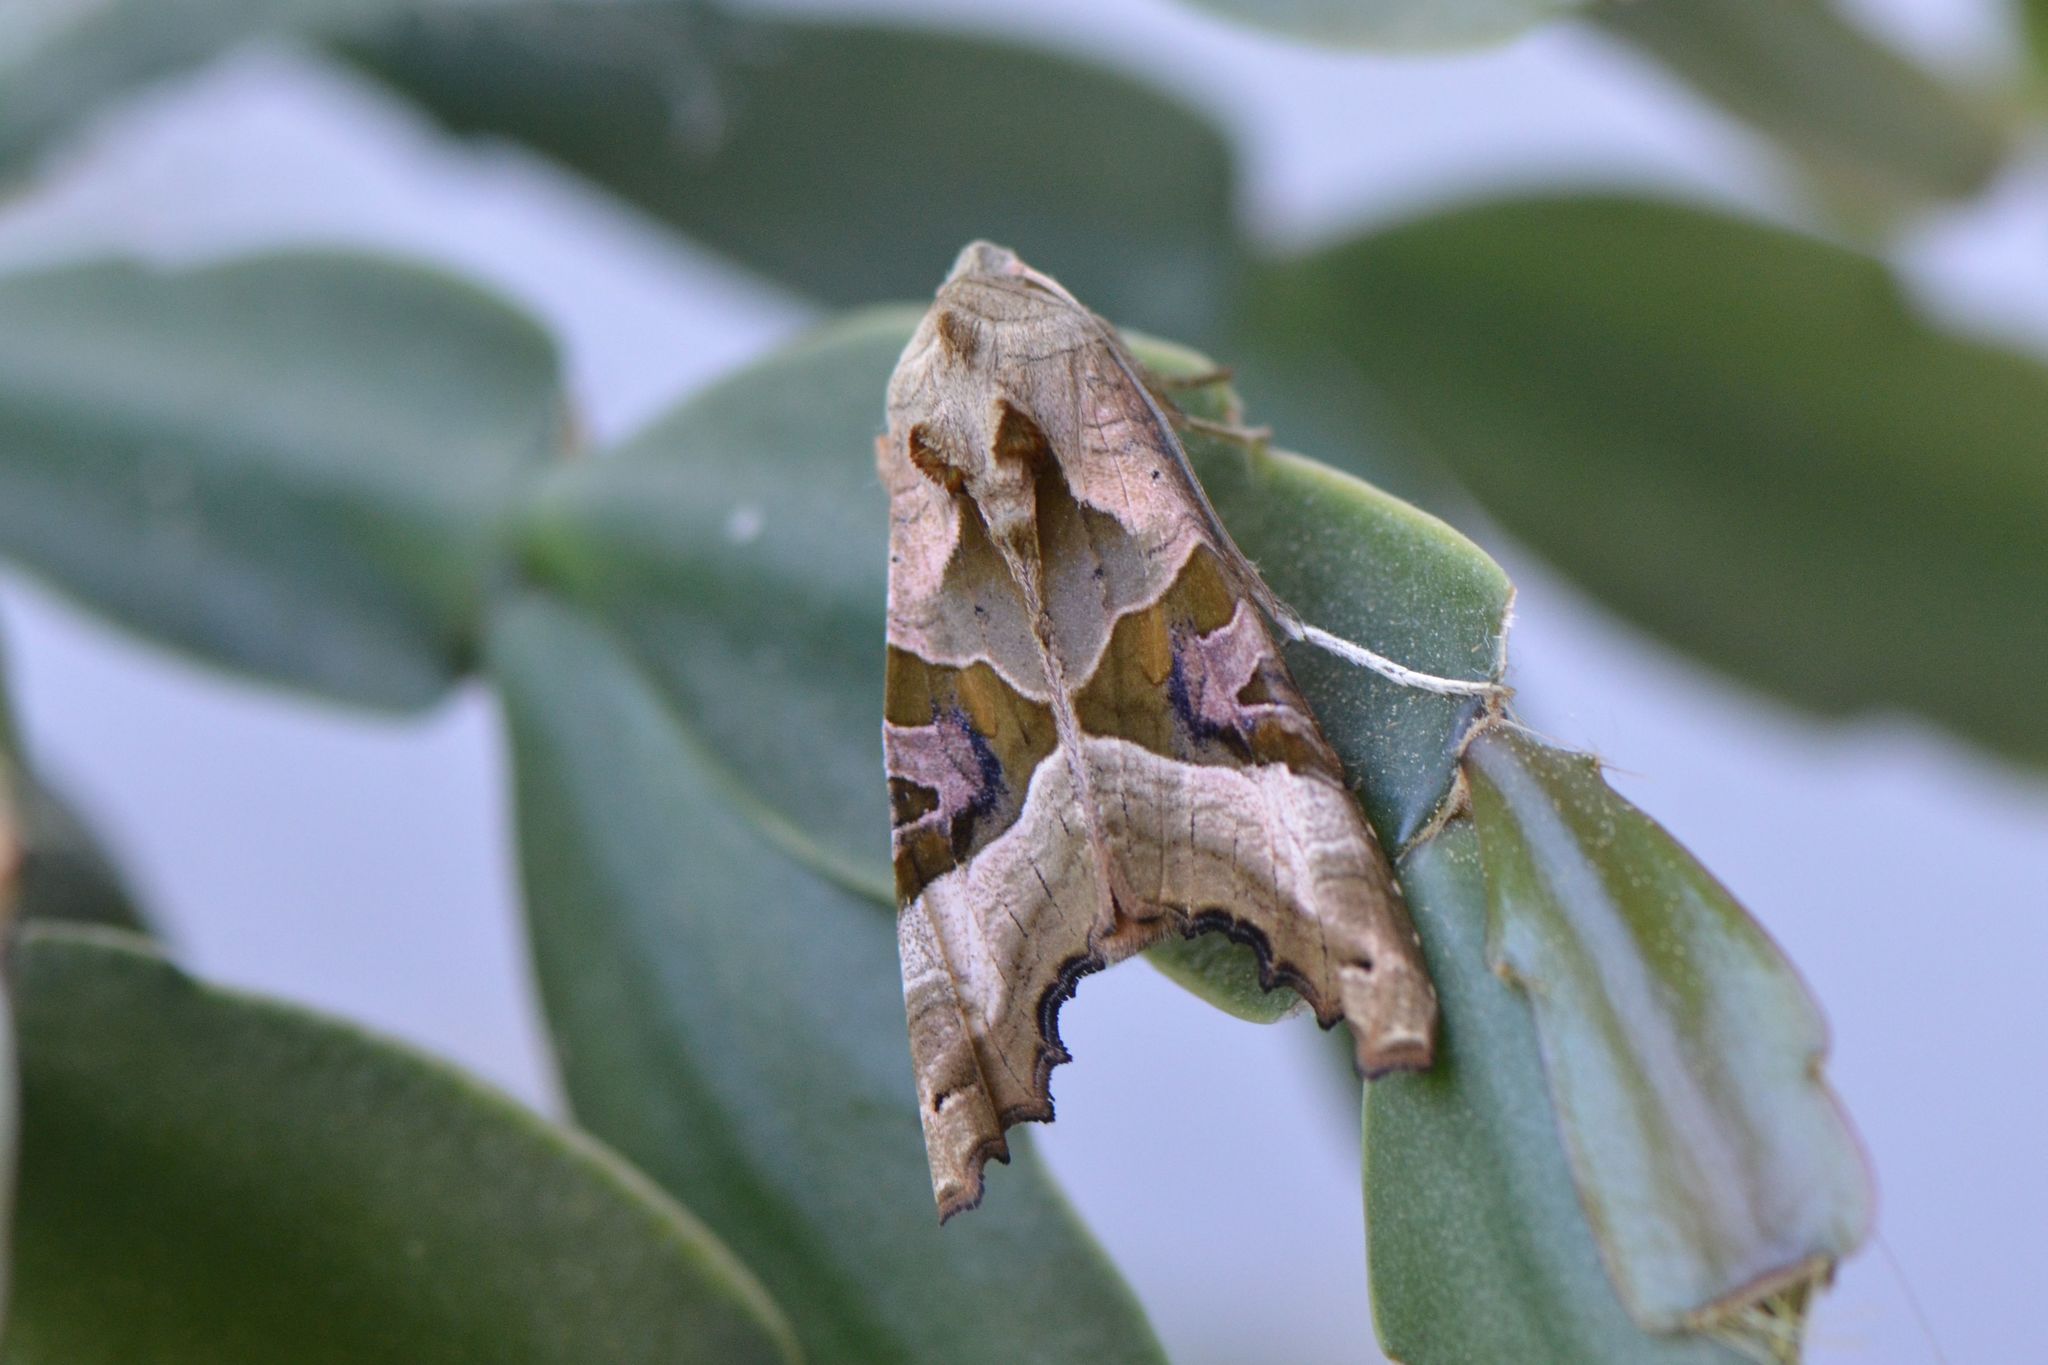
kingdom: Animalia
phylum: Arthropoda
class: Insecta
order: Lepidoptera
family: Noctuidae
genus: Phlogophora
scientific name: Phlogophora meticulosa
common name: Angle shades
